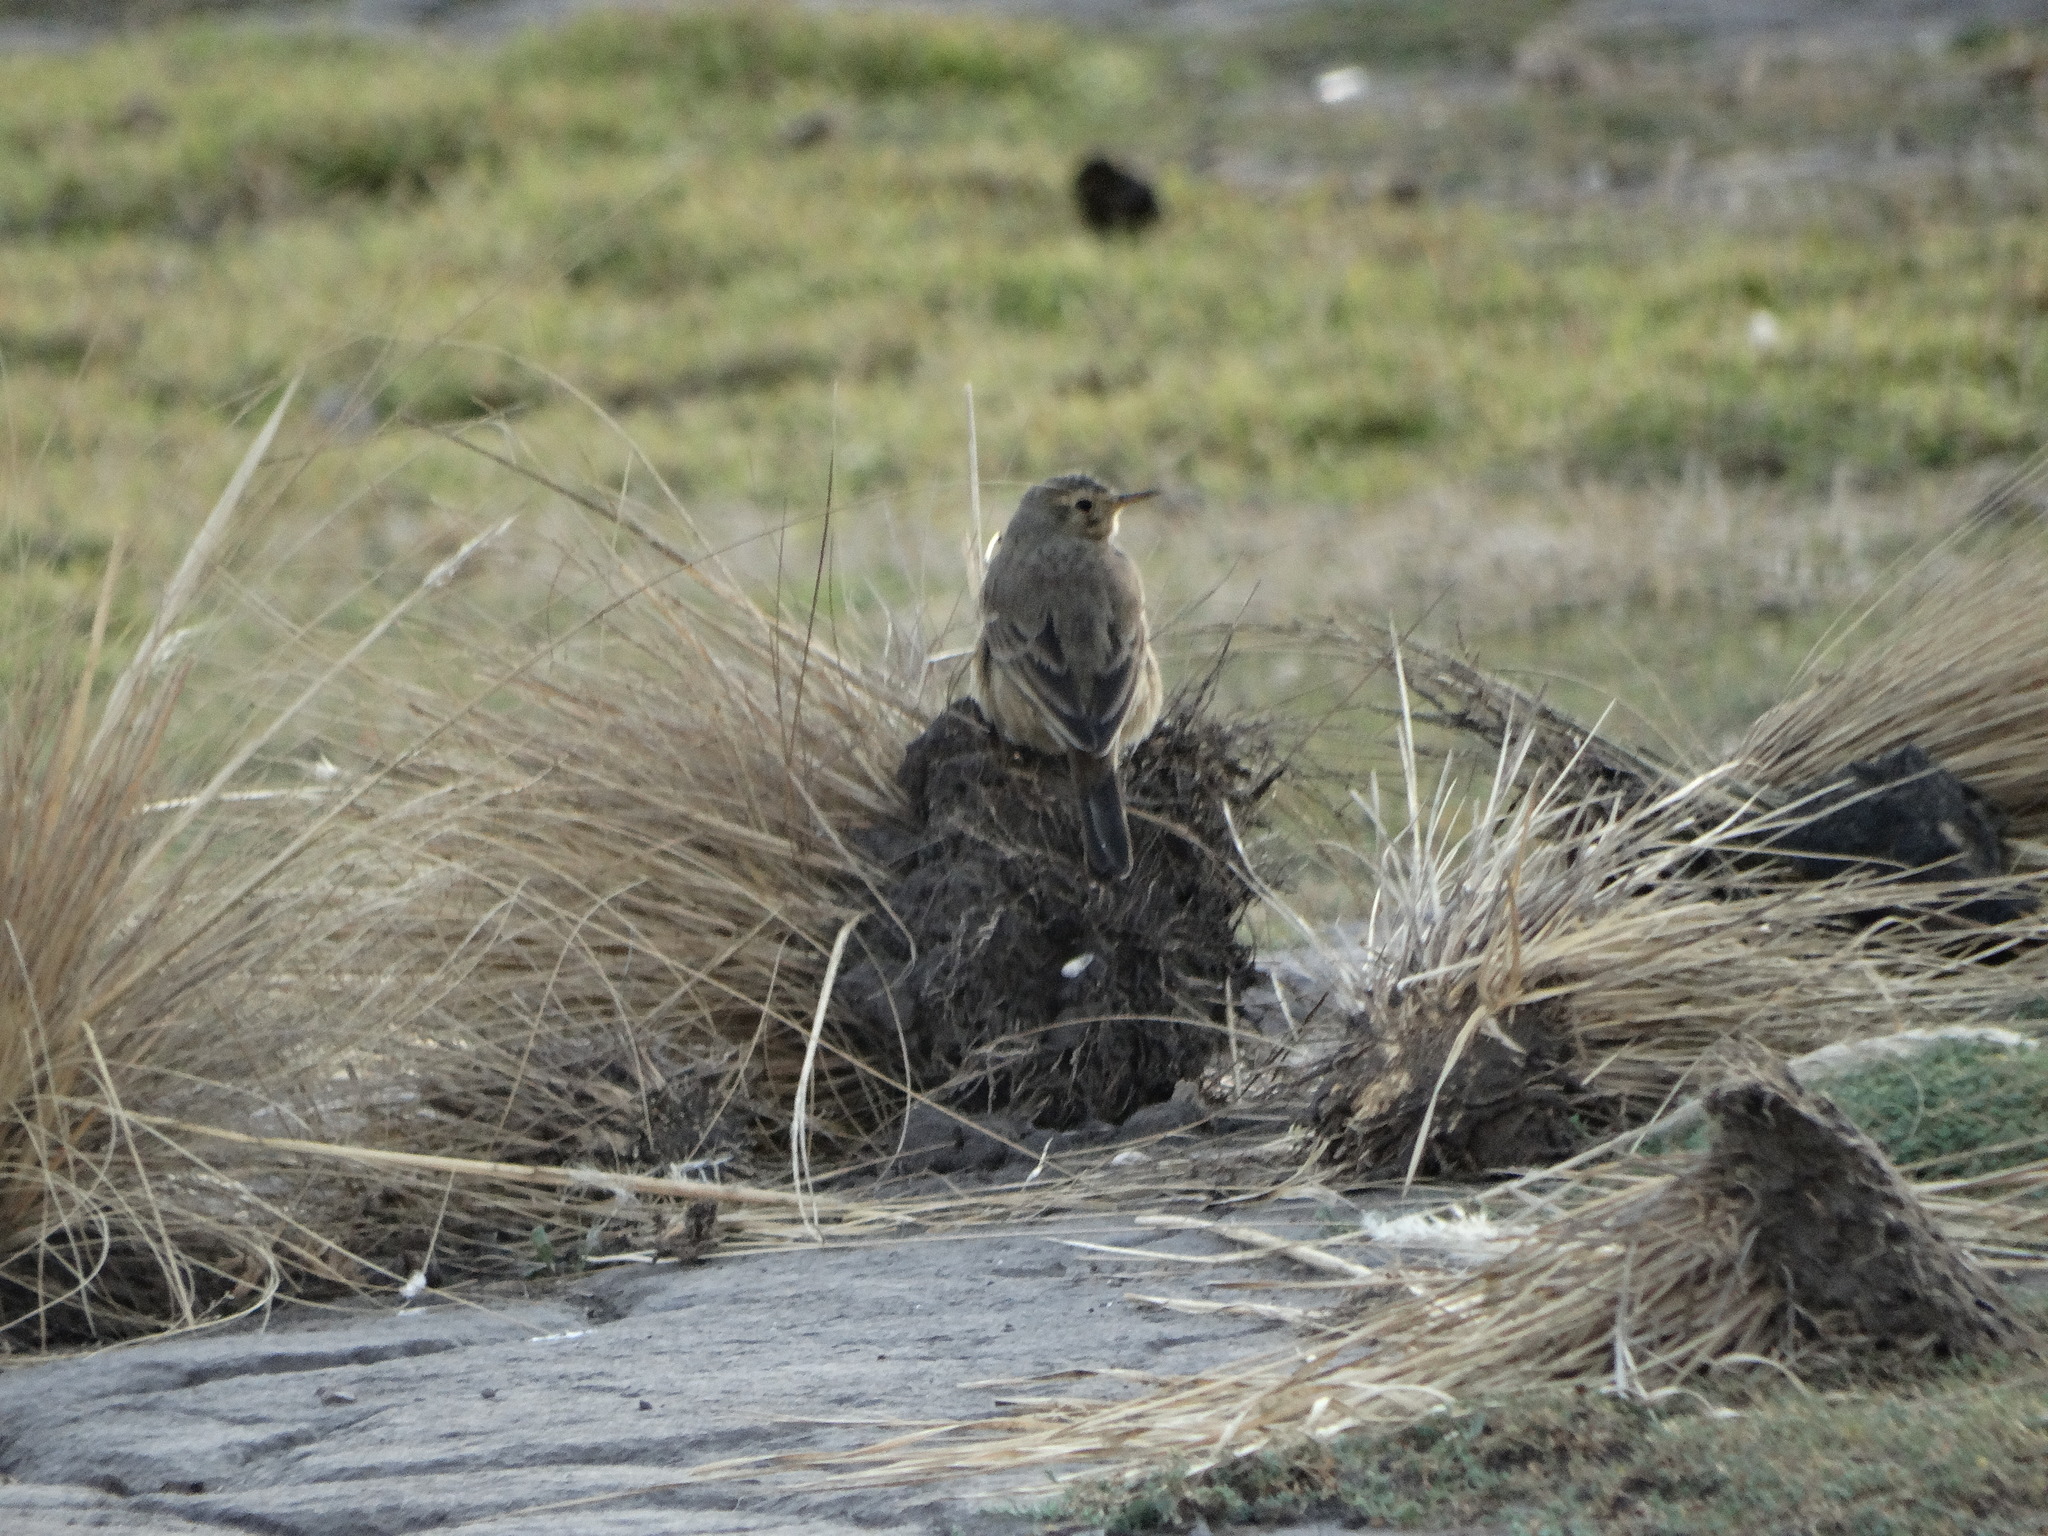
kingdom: Animalia
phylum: Chordata
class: Aves
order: Passeriformes
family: Motacillidae
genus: Anthus
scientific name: Anthus rubescens
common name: Buff-bellied pipit
